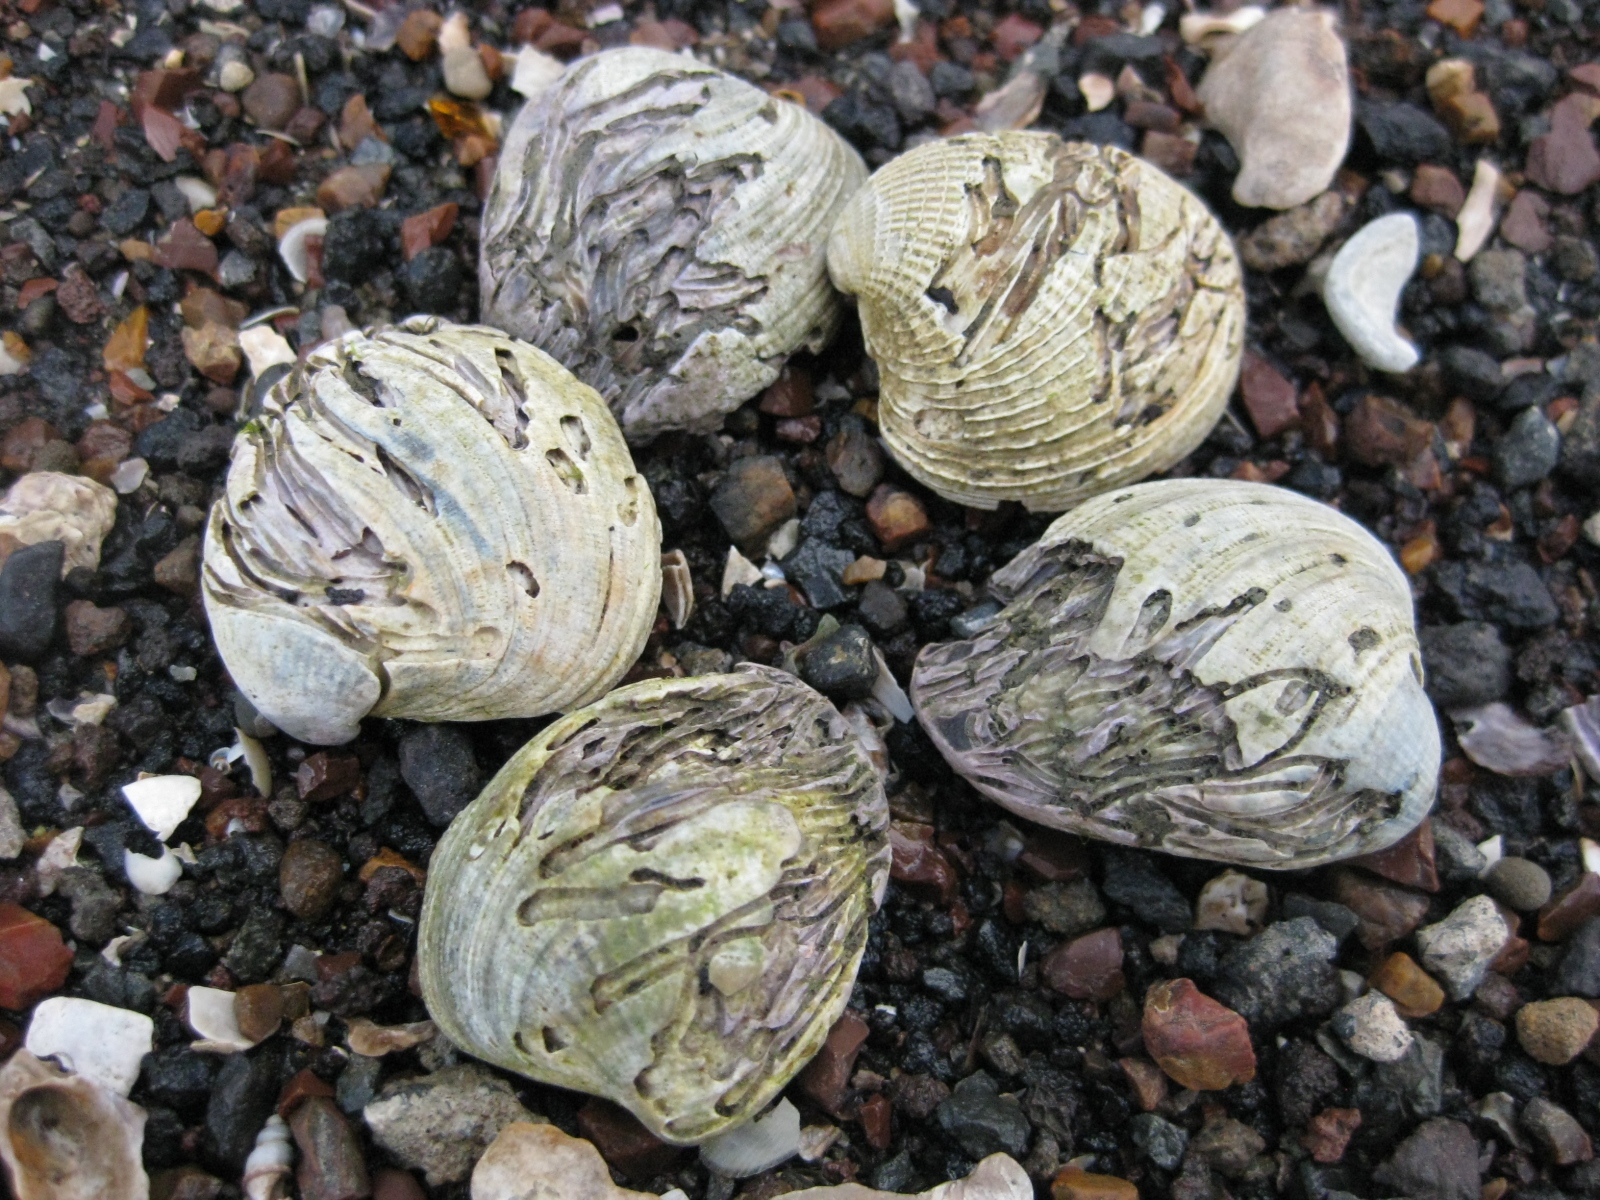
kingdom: Animalia
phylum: Annelida
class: Polychaeta
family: Spionidae
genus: Boccardia
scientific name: Boccardia acus
